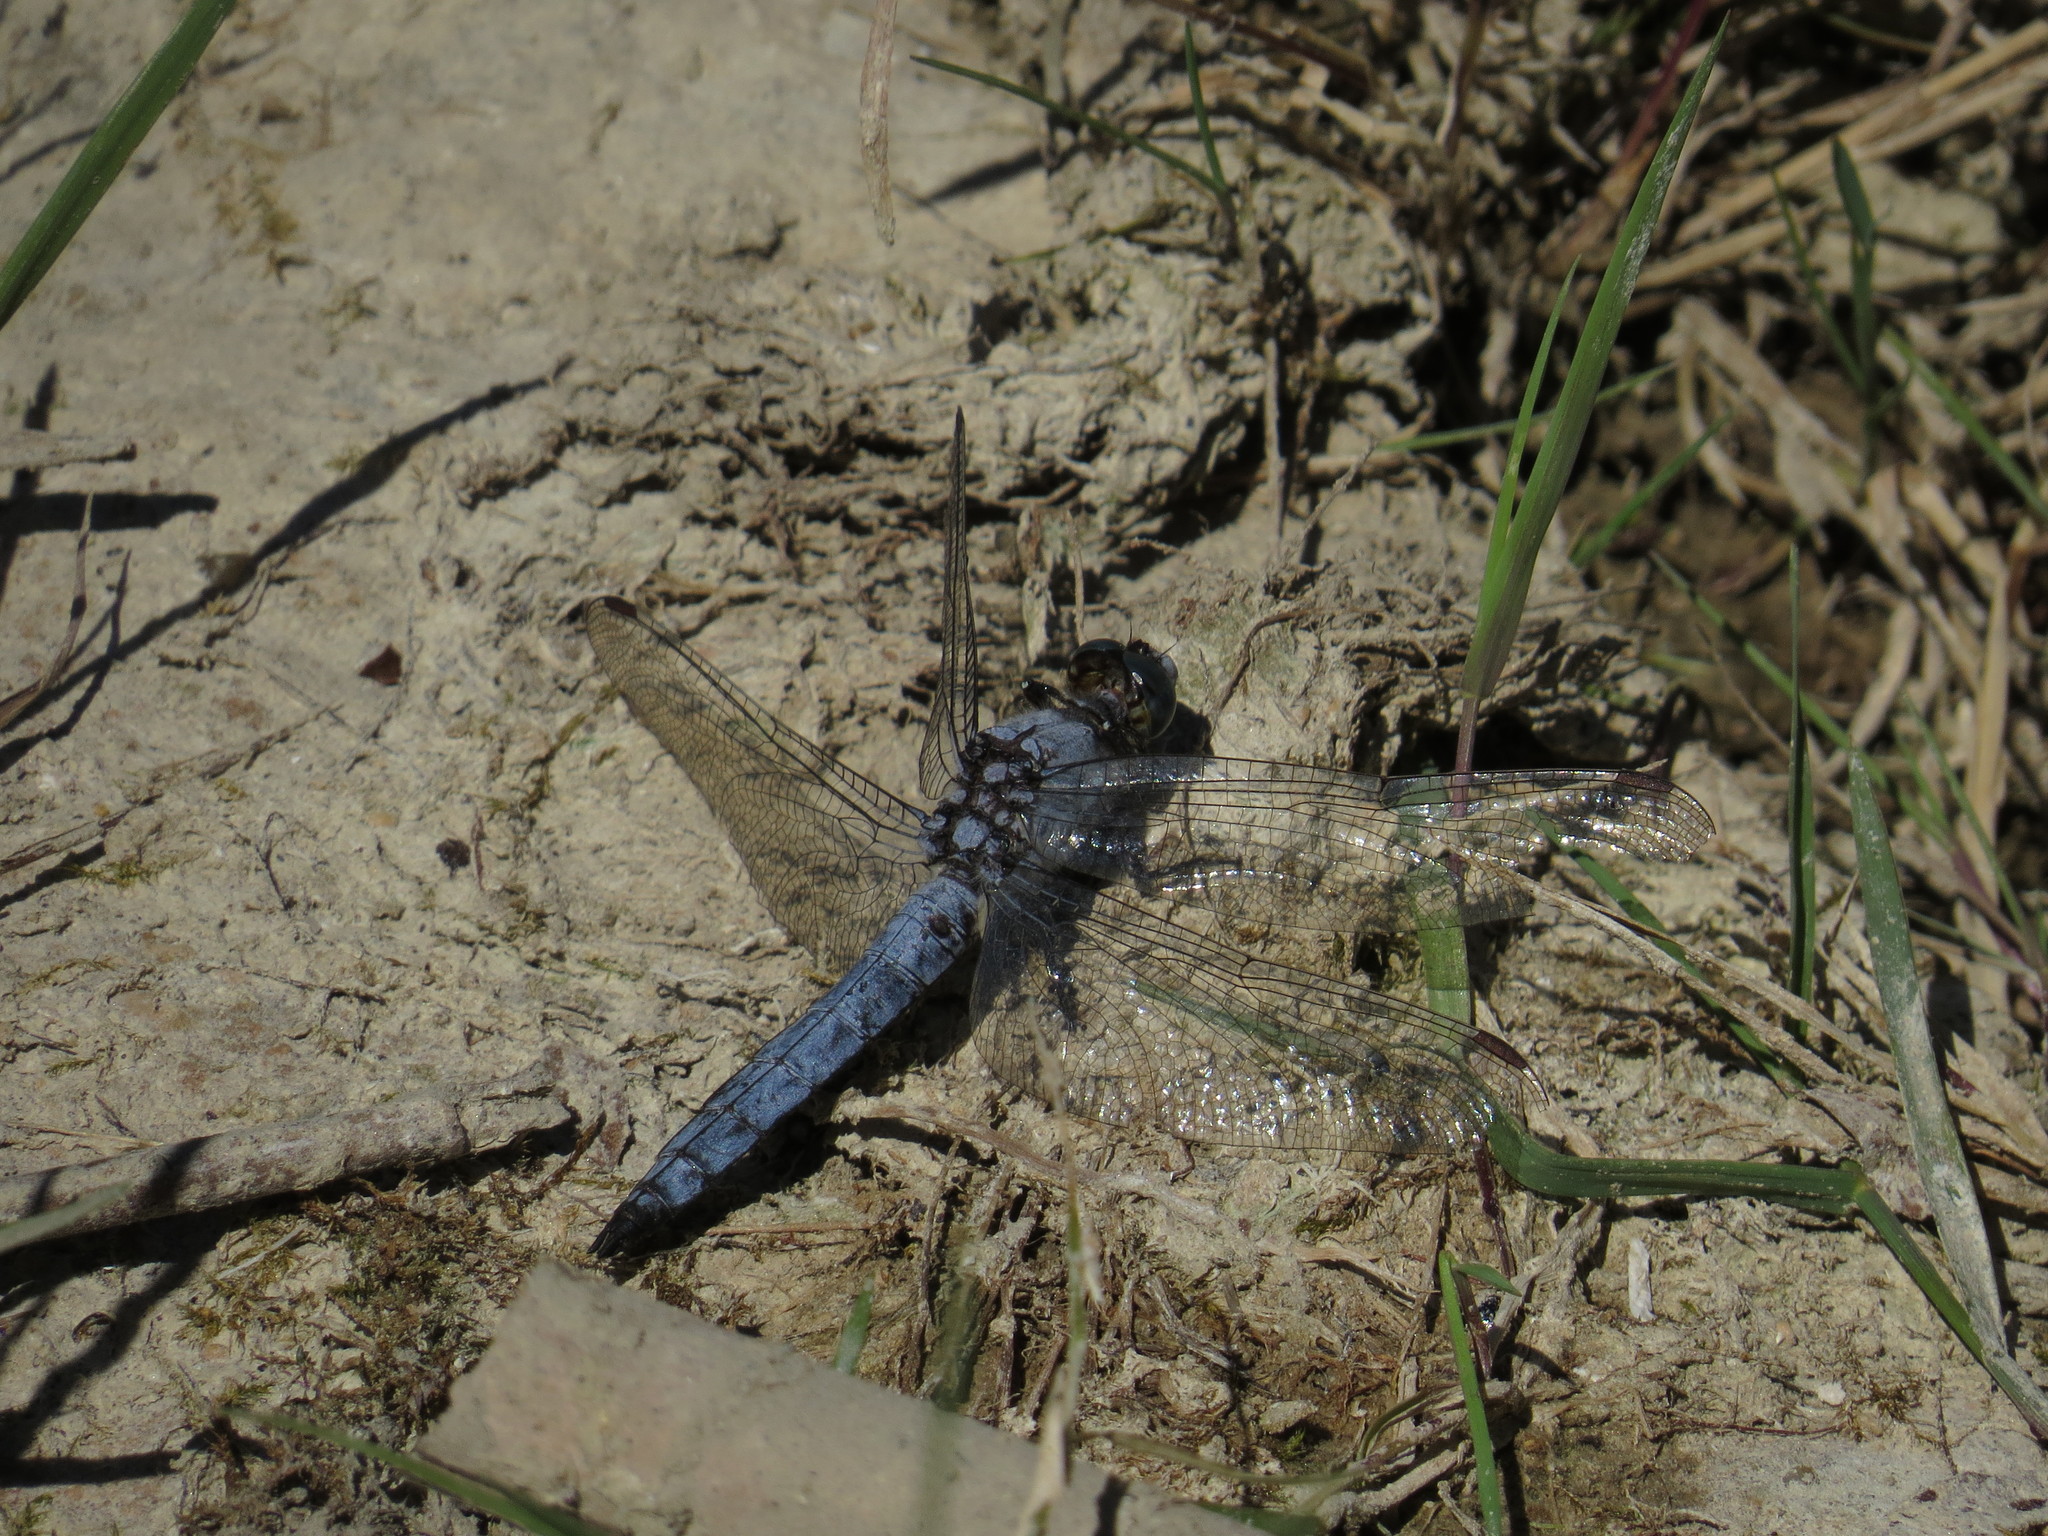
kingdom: Animalia
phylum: Arthropoda
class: Insecta
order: Odonata
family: Libellulidae
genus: Orthetrum
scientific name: Orthetrum brunneum
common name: Southern skimmer
